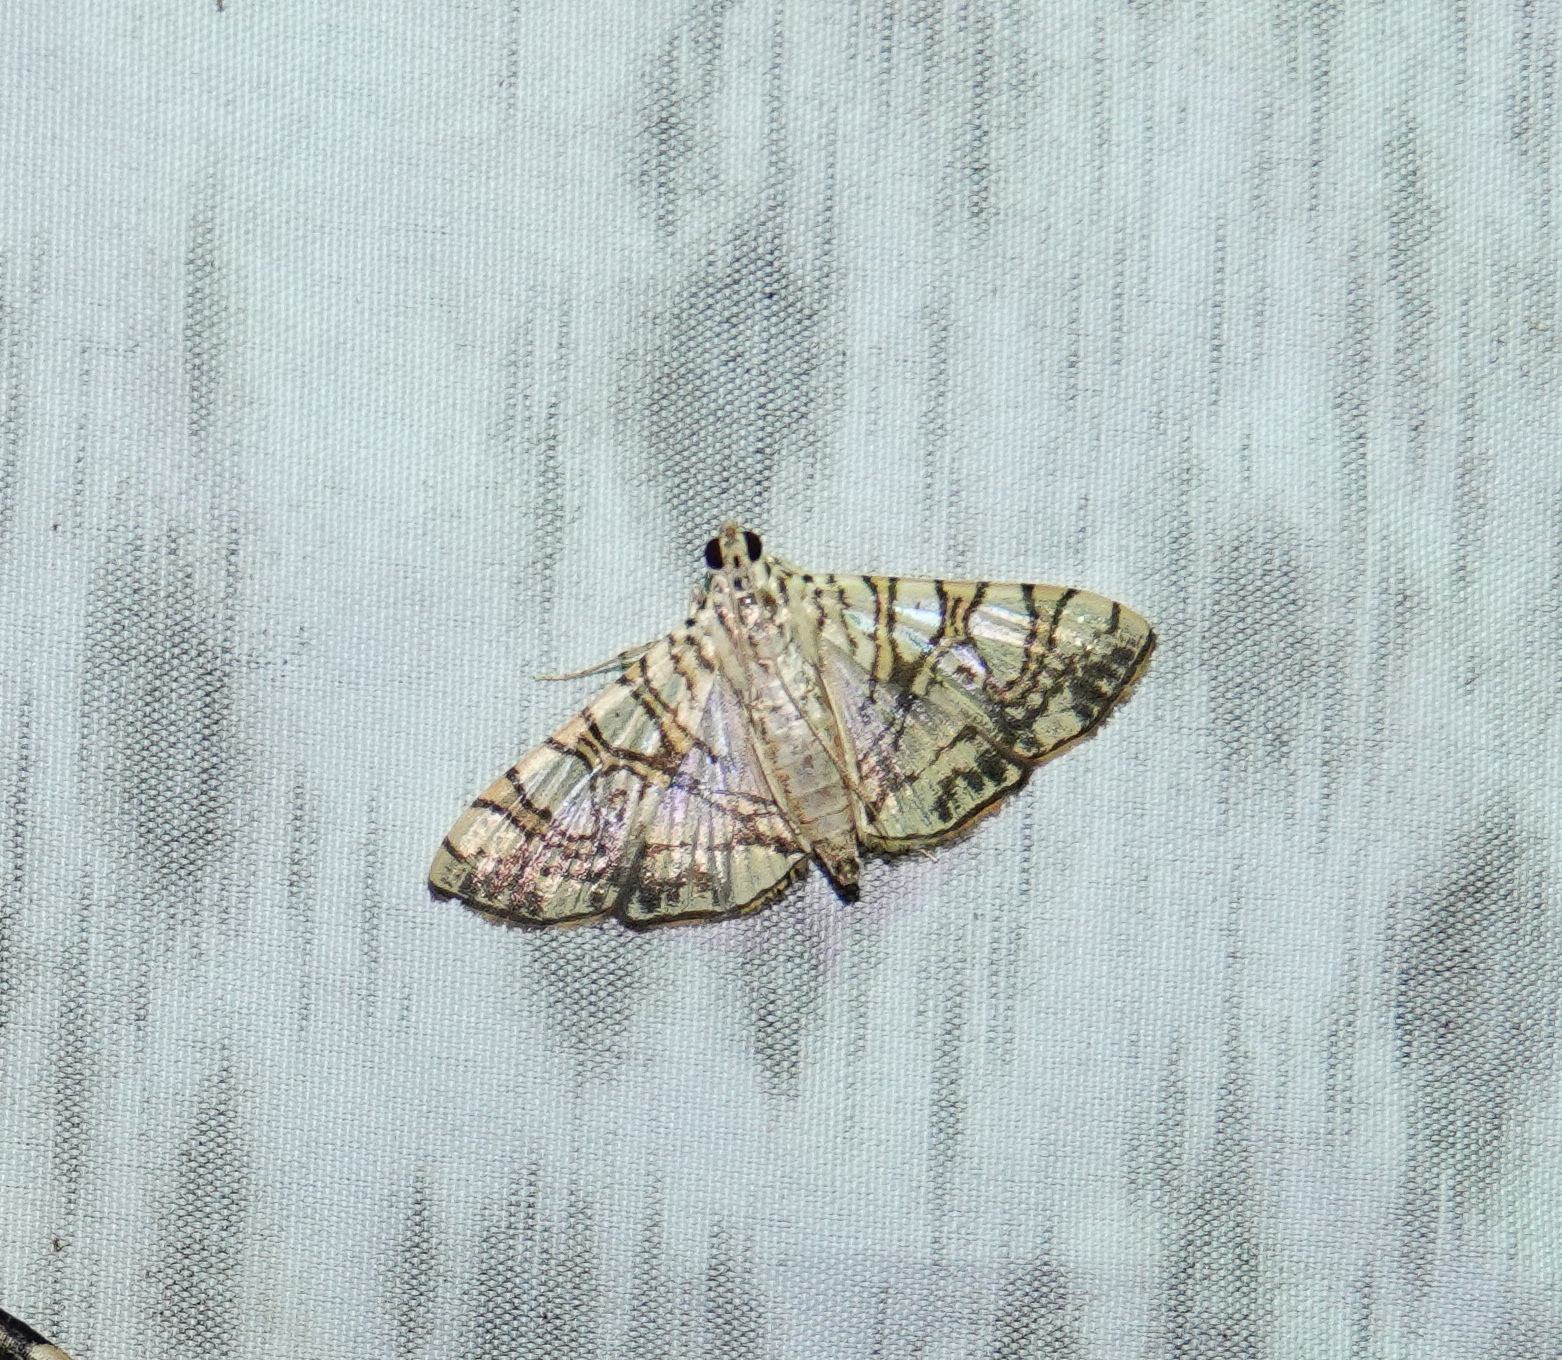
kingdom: Animalia
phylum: Arthropoda
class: Insecta
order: Lepidoptera
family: Crambidae
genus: Glyphodes
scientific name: Glyphodes caesalis
